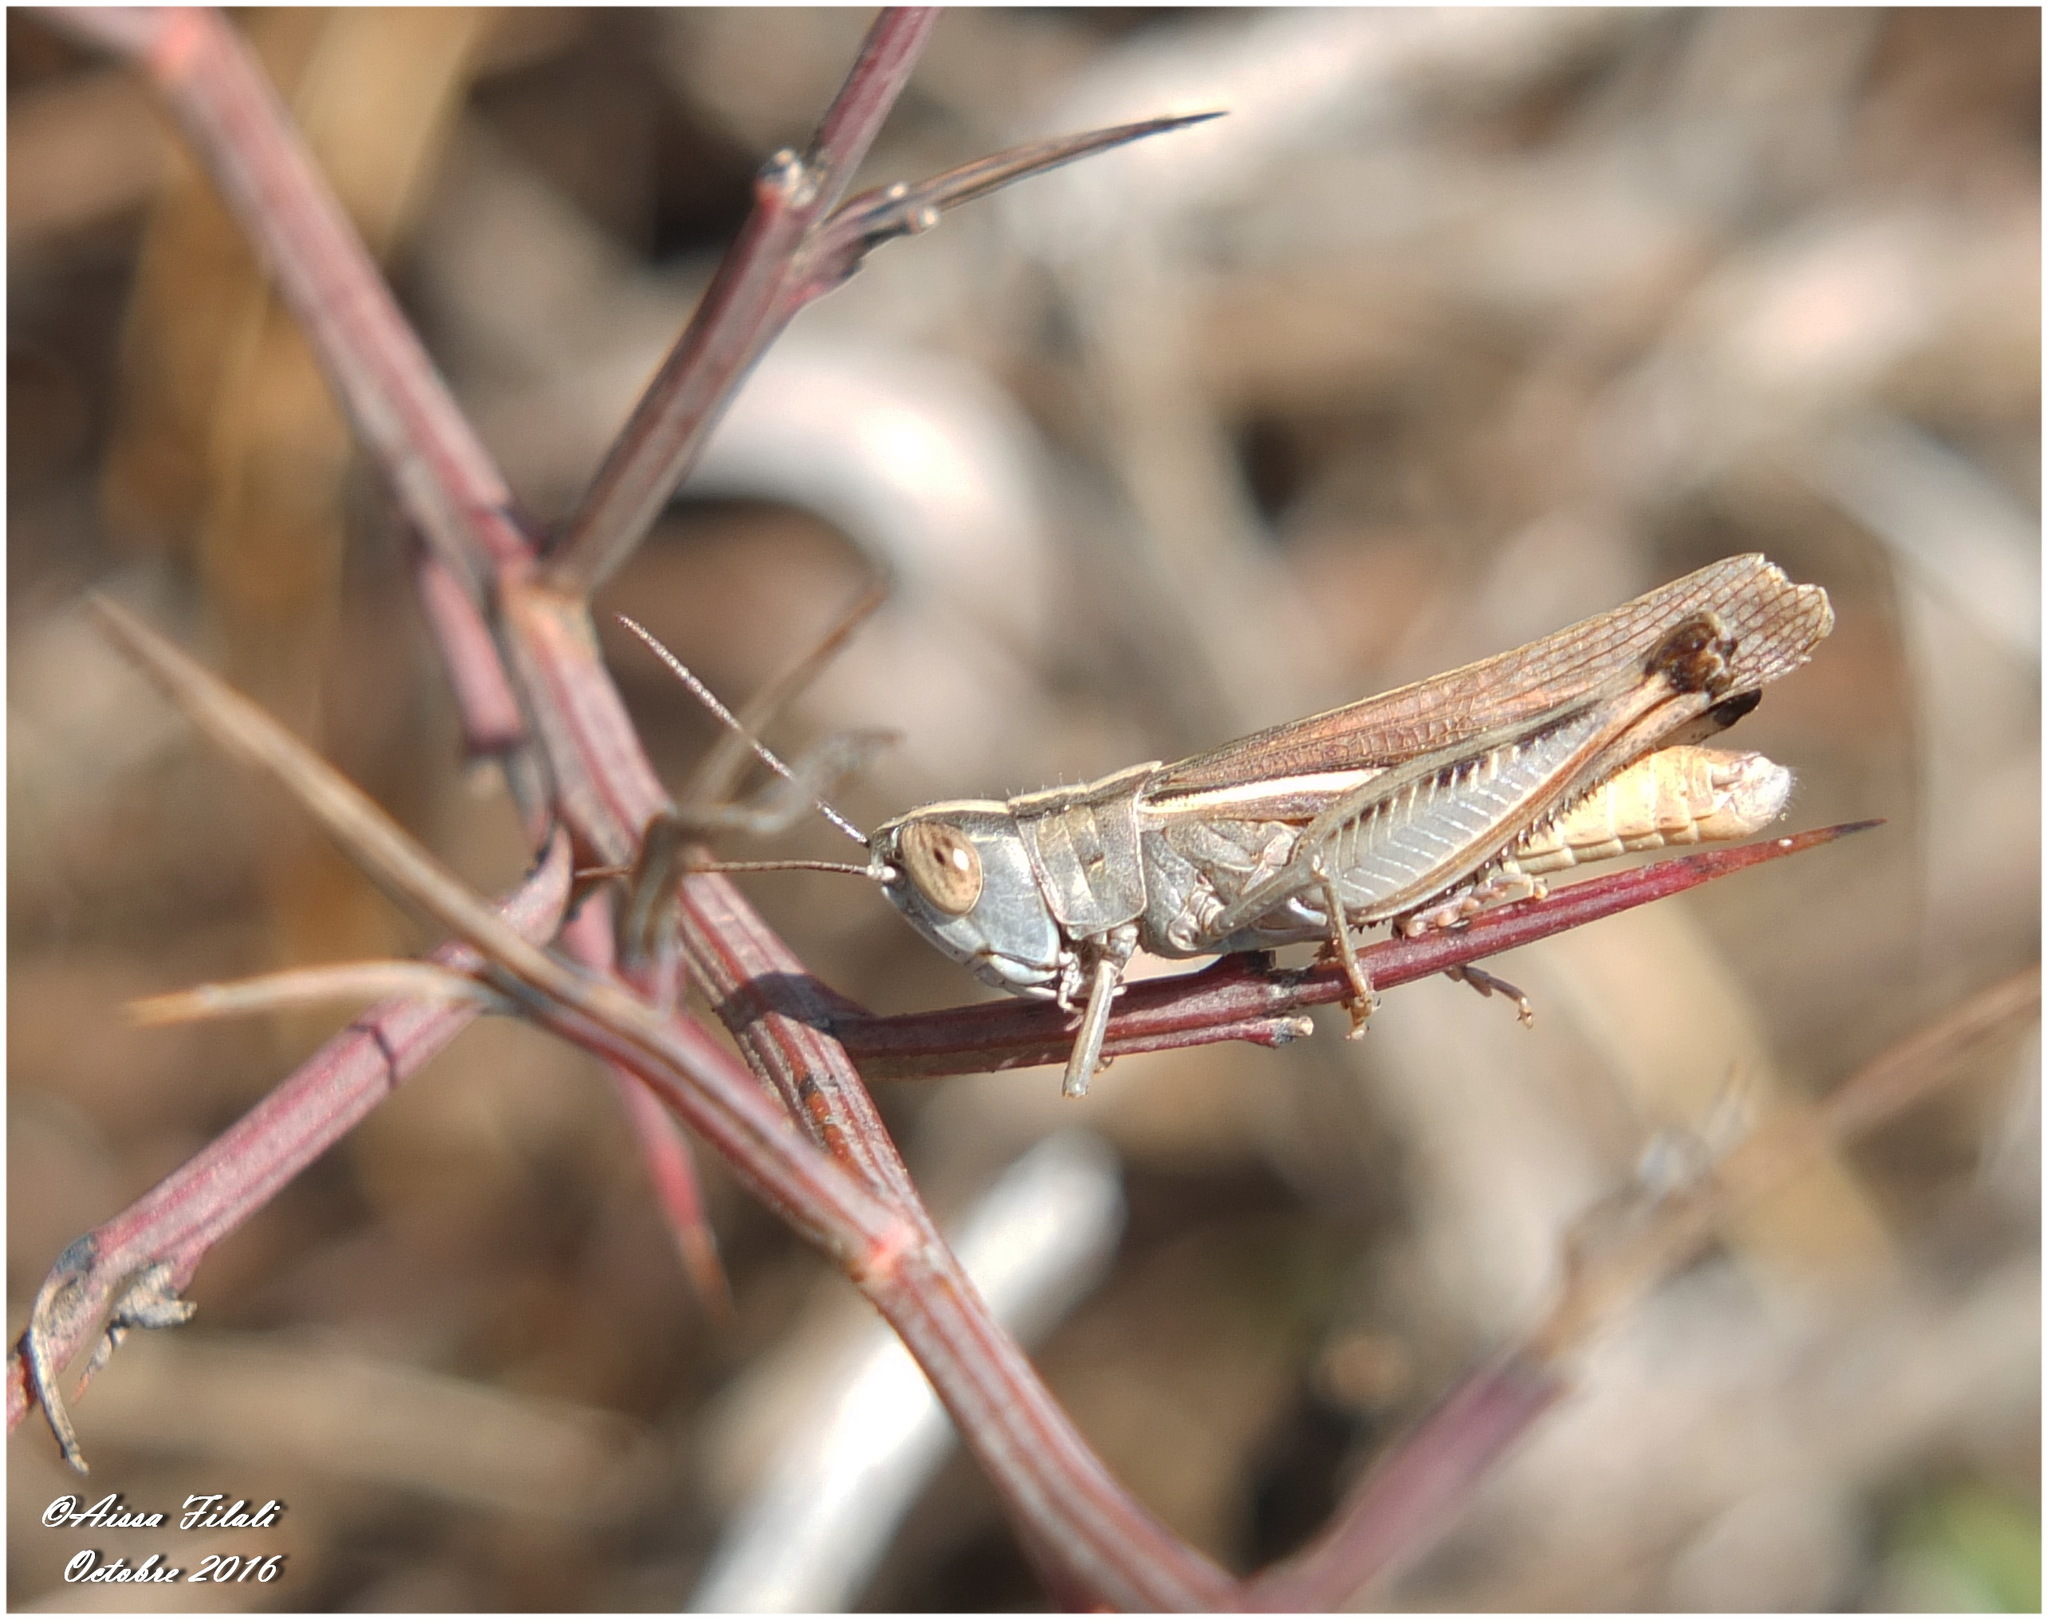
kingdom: Animalia
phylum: Arthropoda
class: Insecta
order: Orthoptera
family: Acrididae
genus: Ramburiella
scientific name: Ramburiella hispanica
